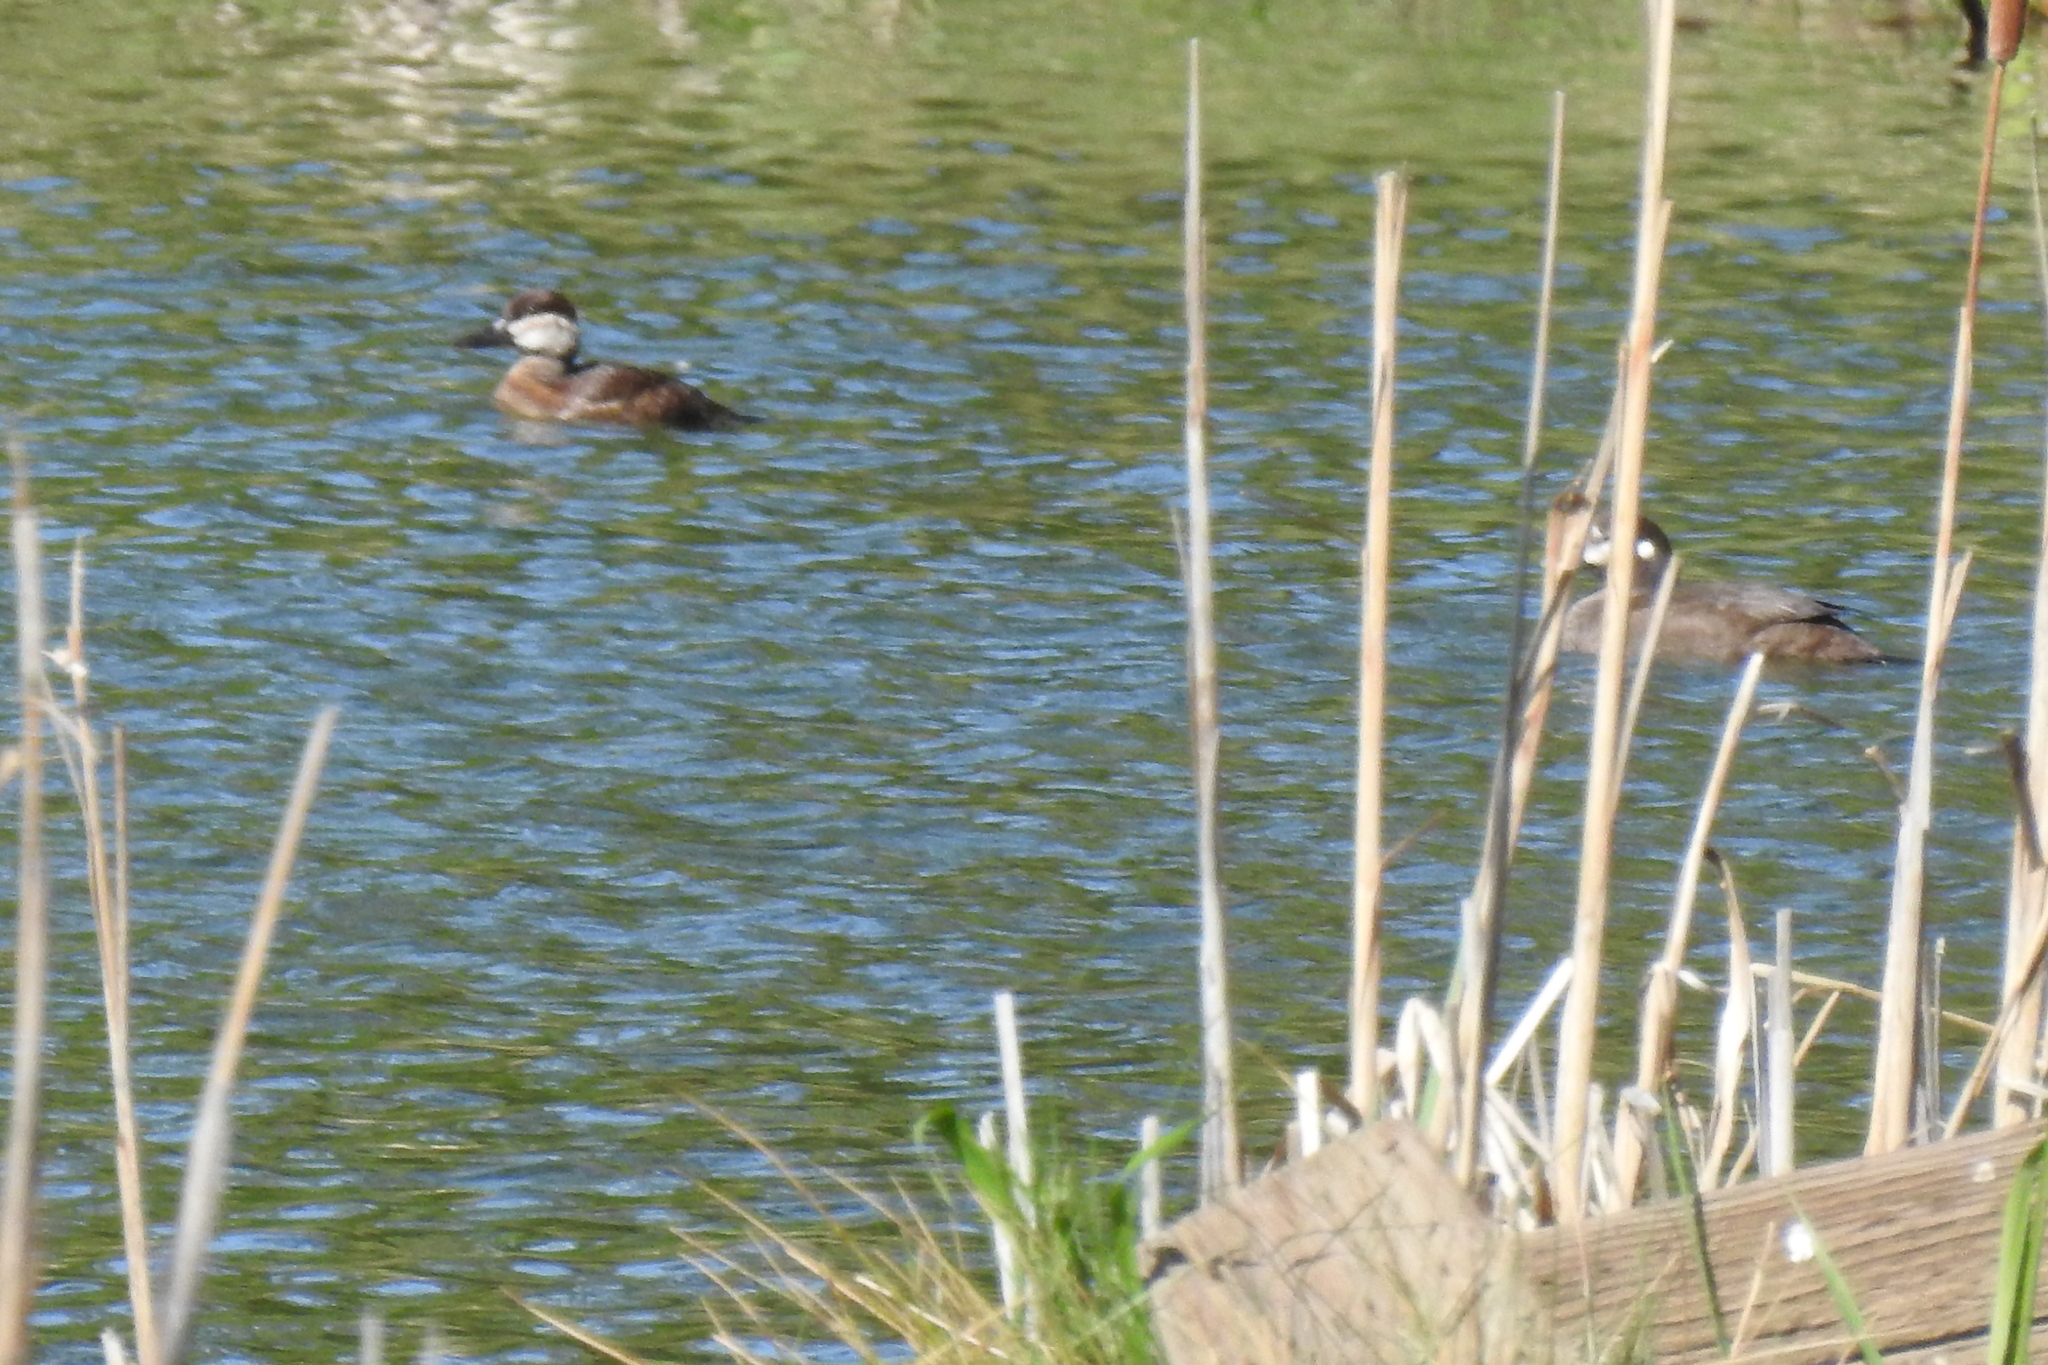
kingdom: Animalia
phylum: Chordata
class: Aves
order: Anseriformes
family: Anatidae
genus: Oxyura
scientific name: Oxyura jamaicensis
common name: Ruddy duck
